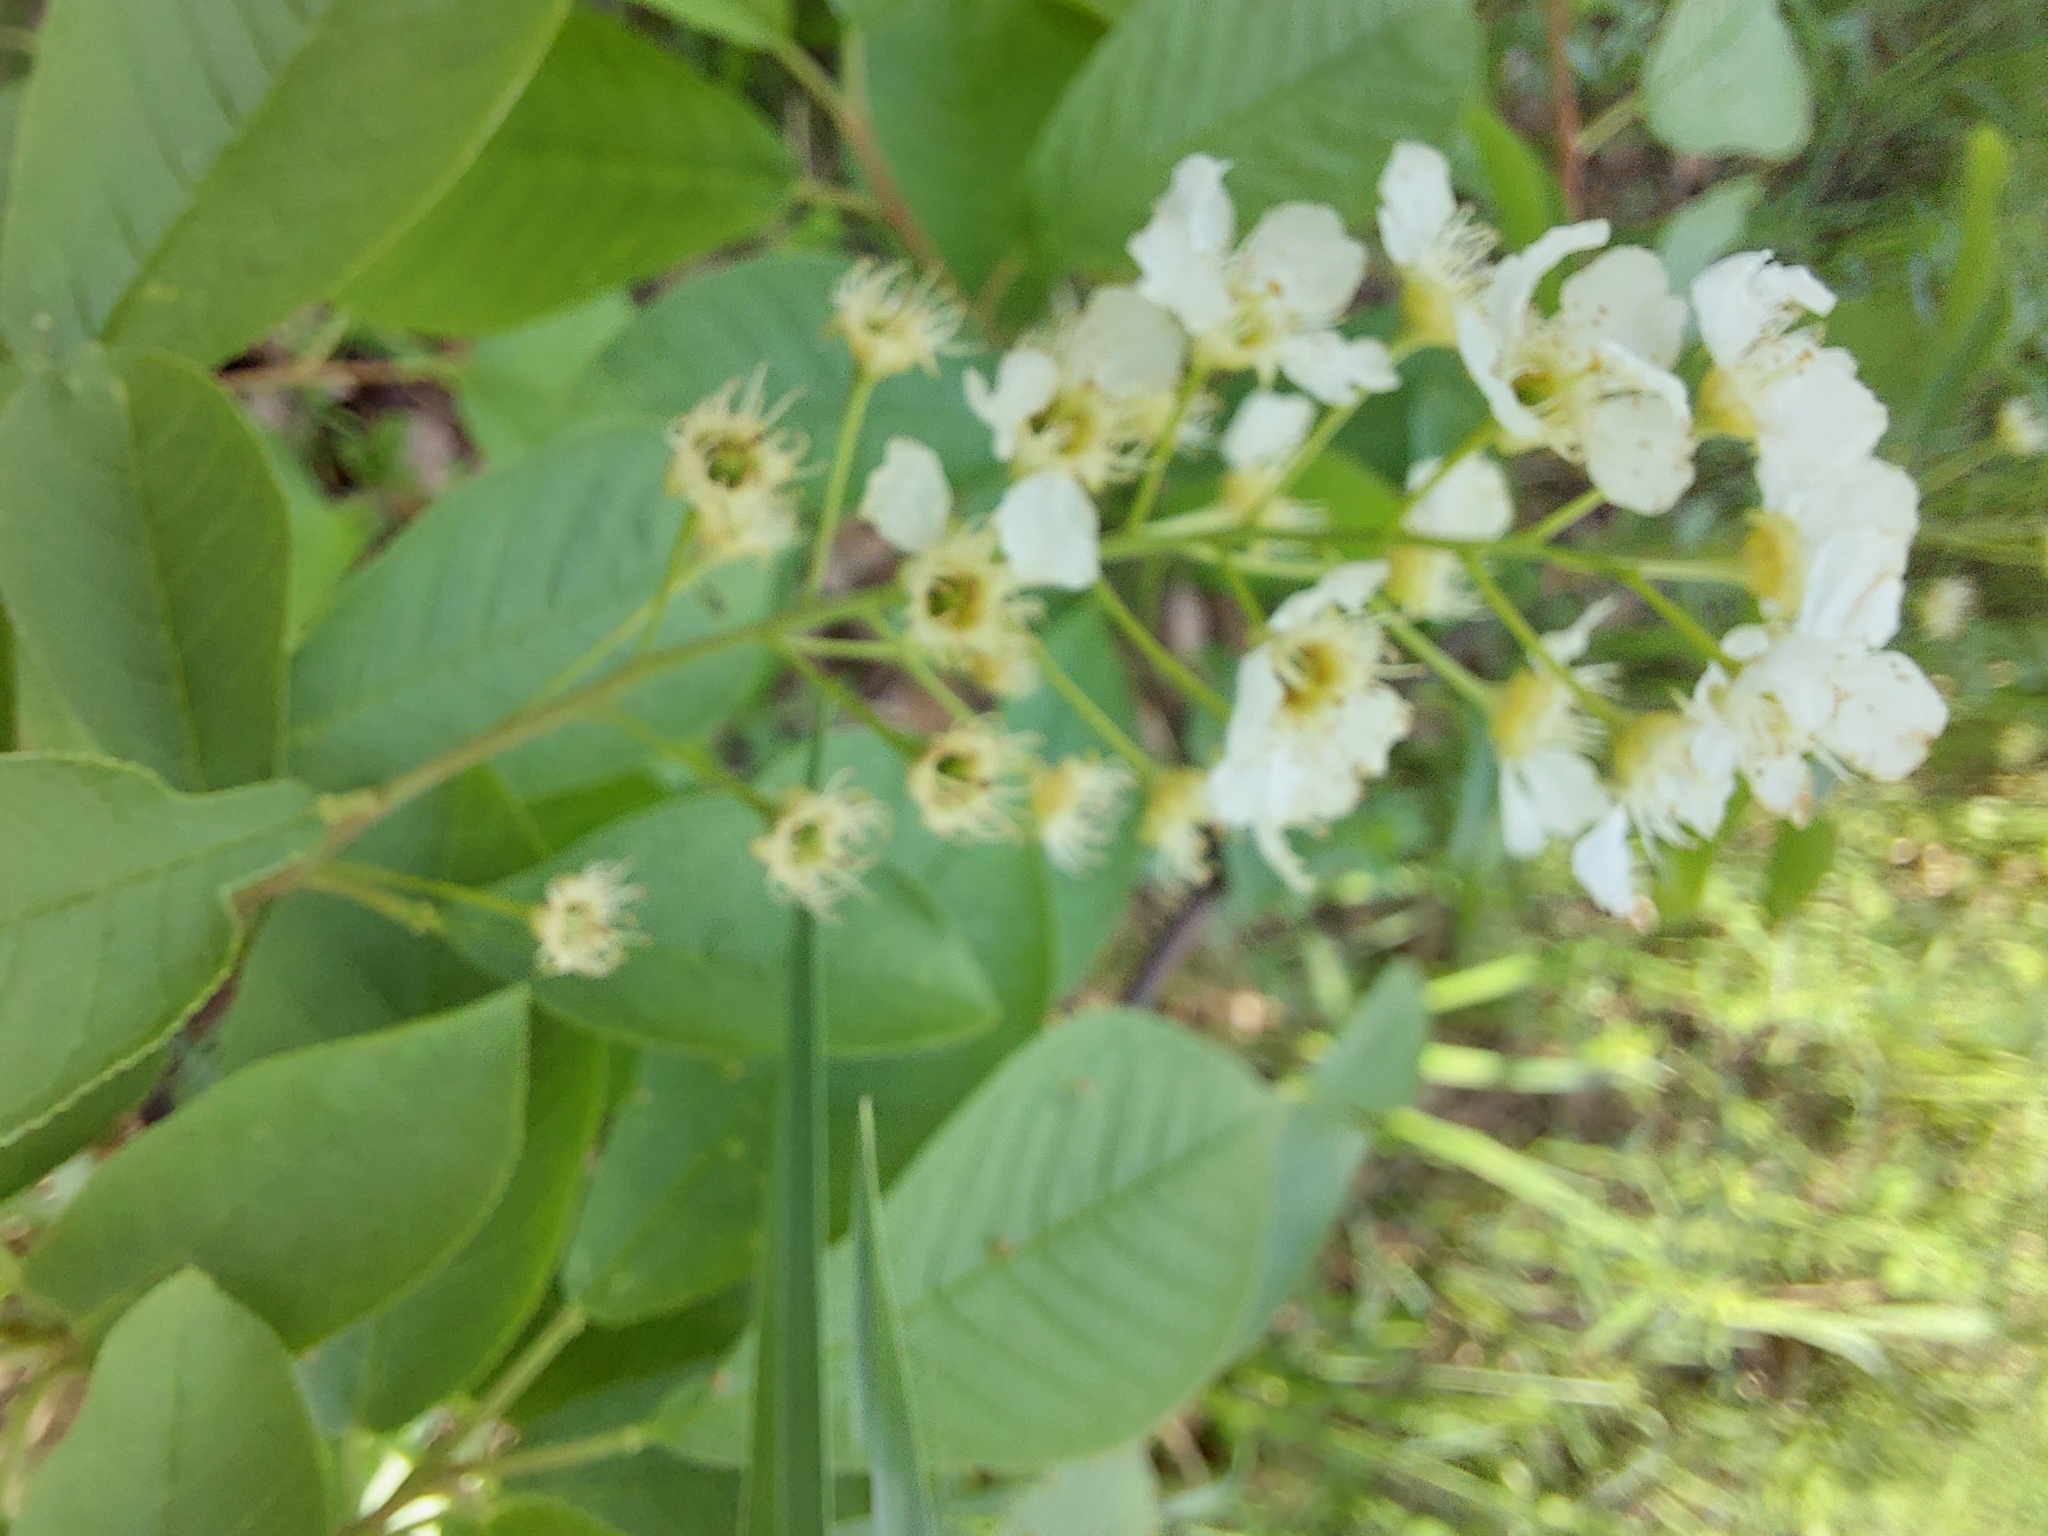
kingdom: Plantae
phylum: Tracheophyta
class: Magnoliopsida
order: Rosales
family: Rosaceae
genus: Prunus
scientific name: Prunus padus
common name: Bird cherry
